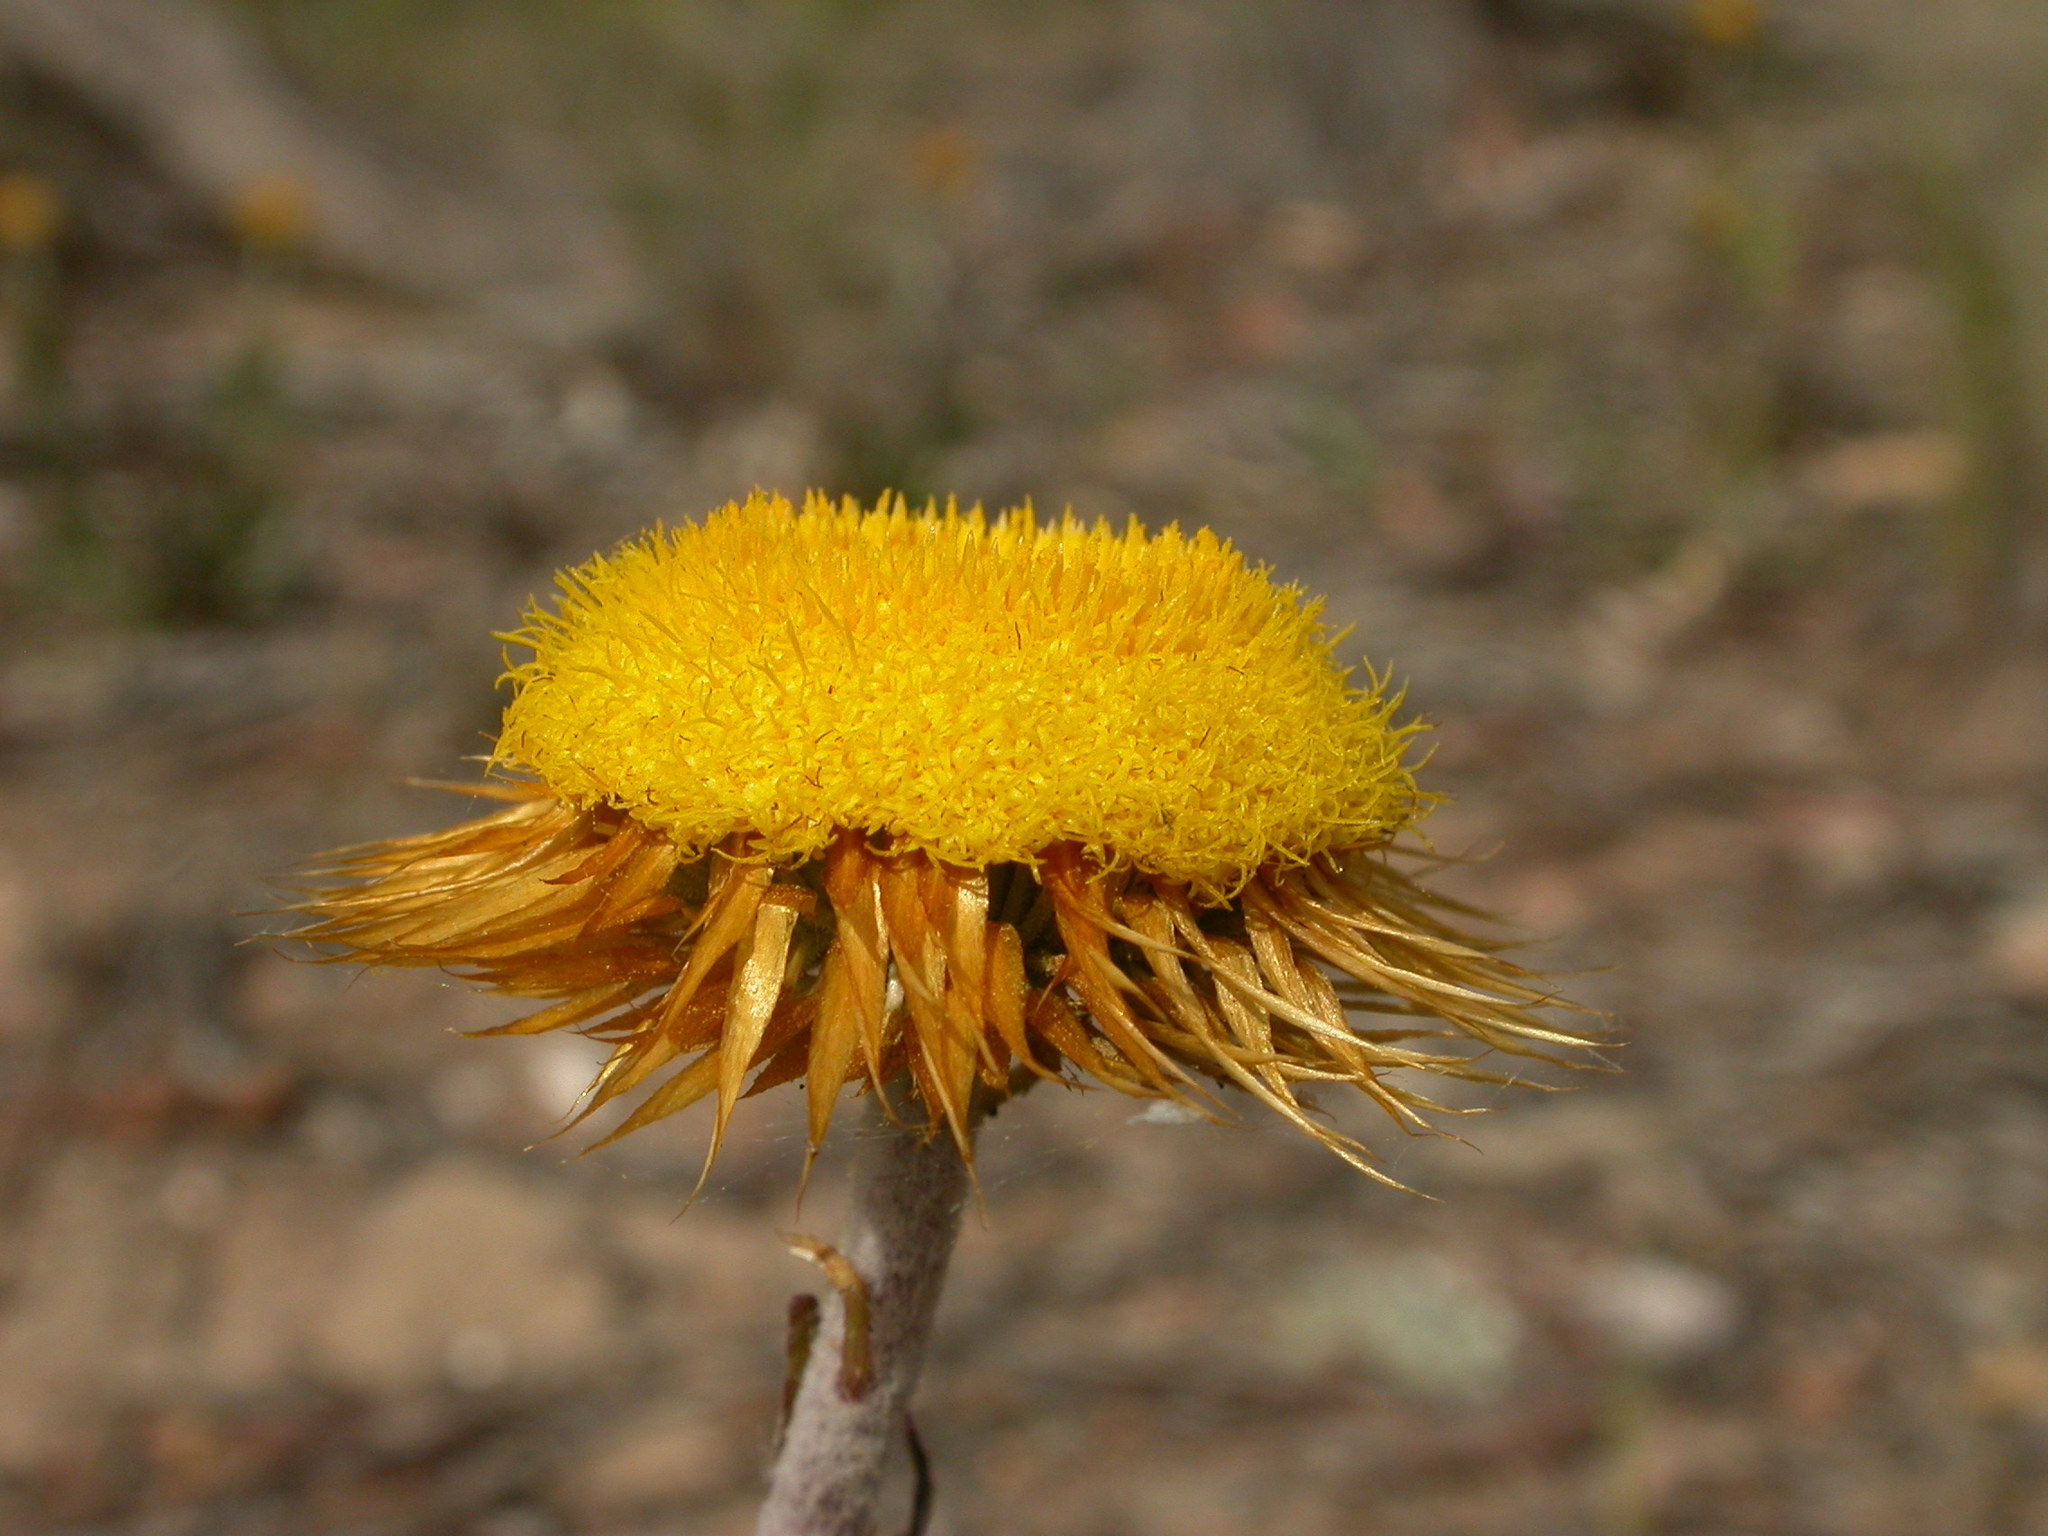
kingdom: Plantae
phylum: Tracheophyta
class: Magnoliopsida
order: Asterales
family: Asteraceae
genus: Coronidium
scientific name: Coronidium oxylepis
